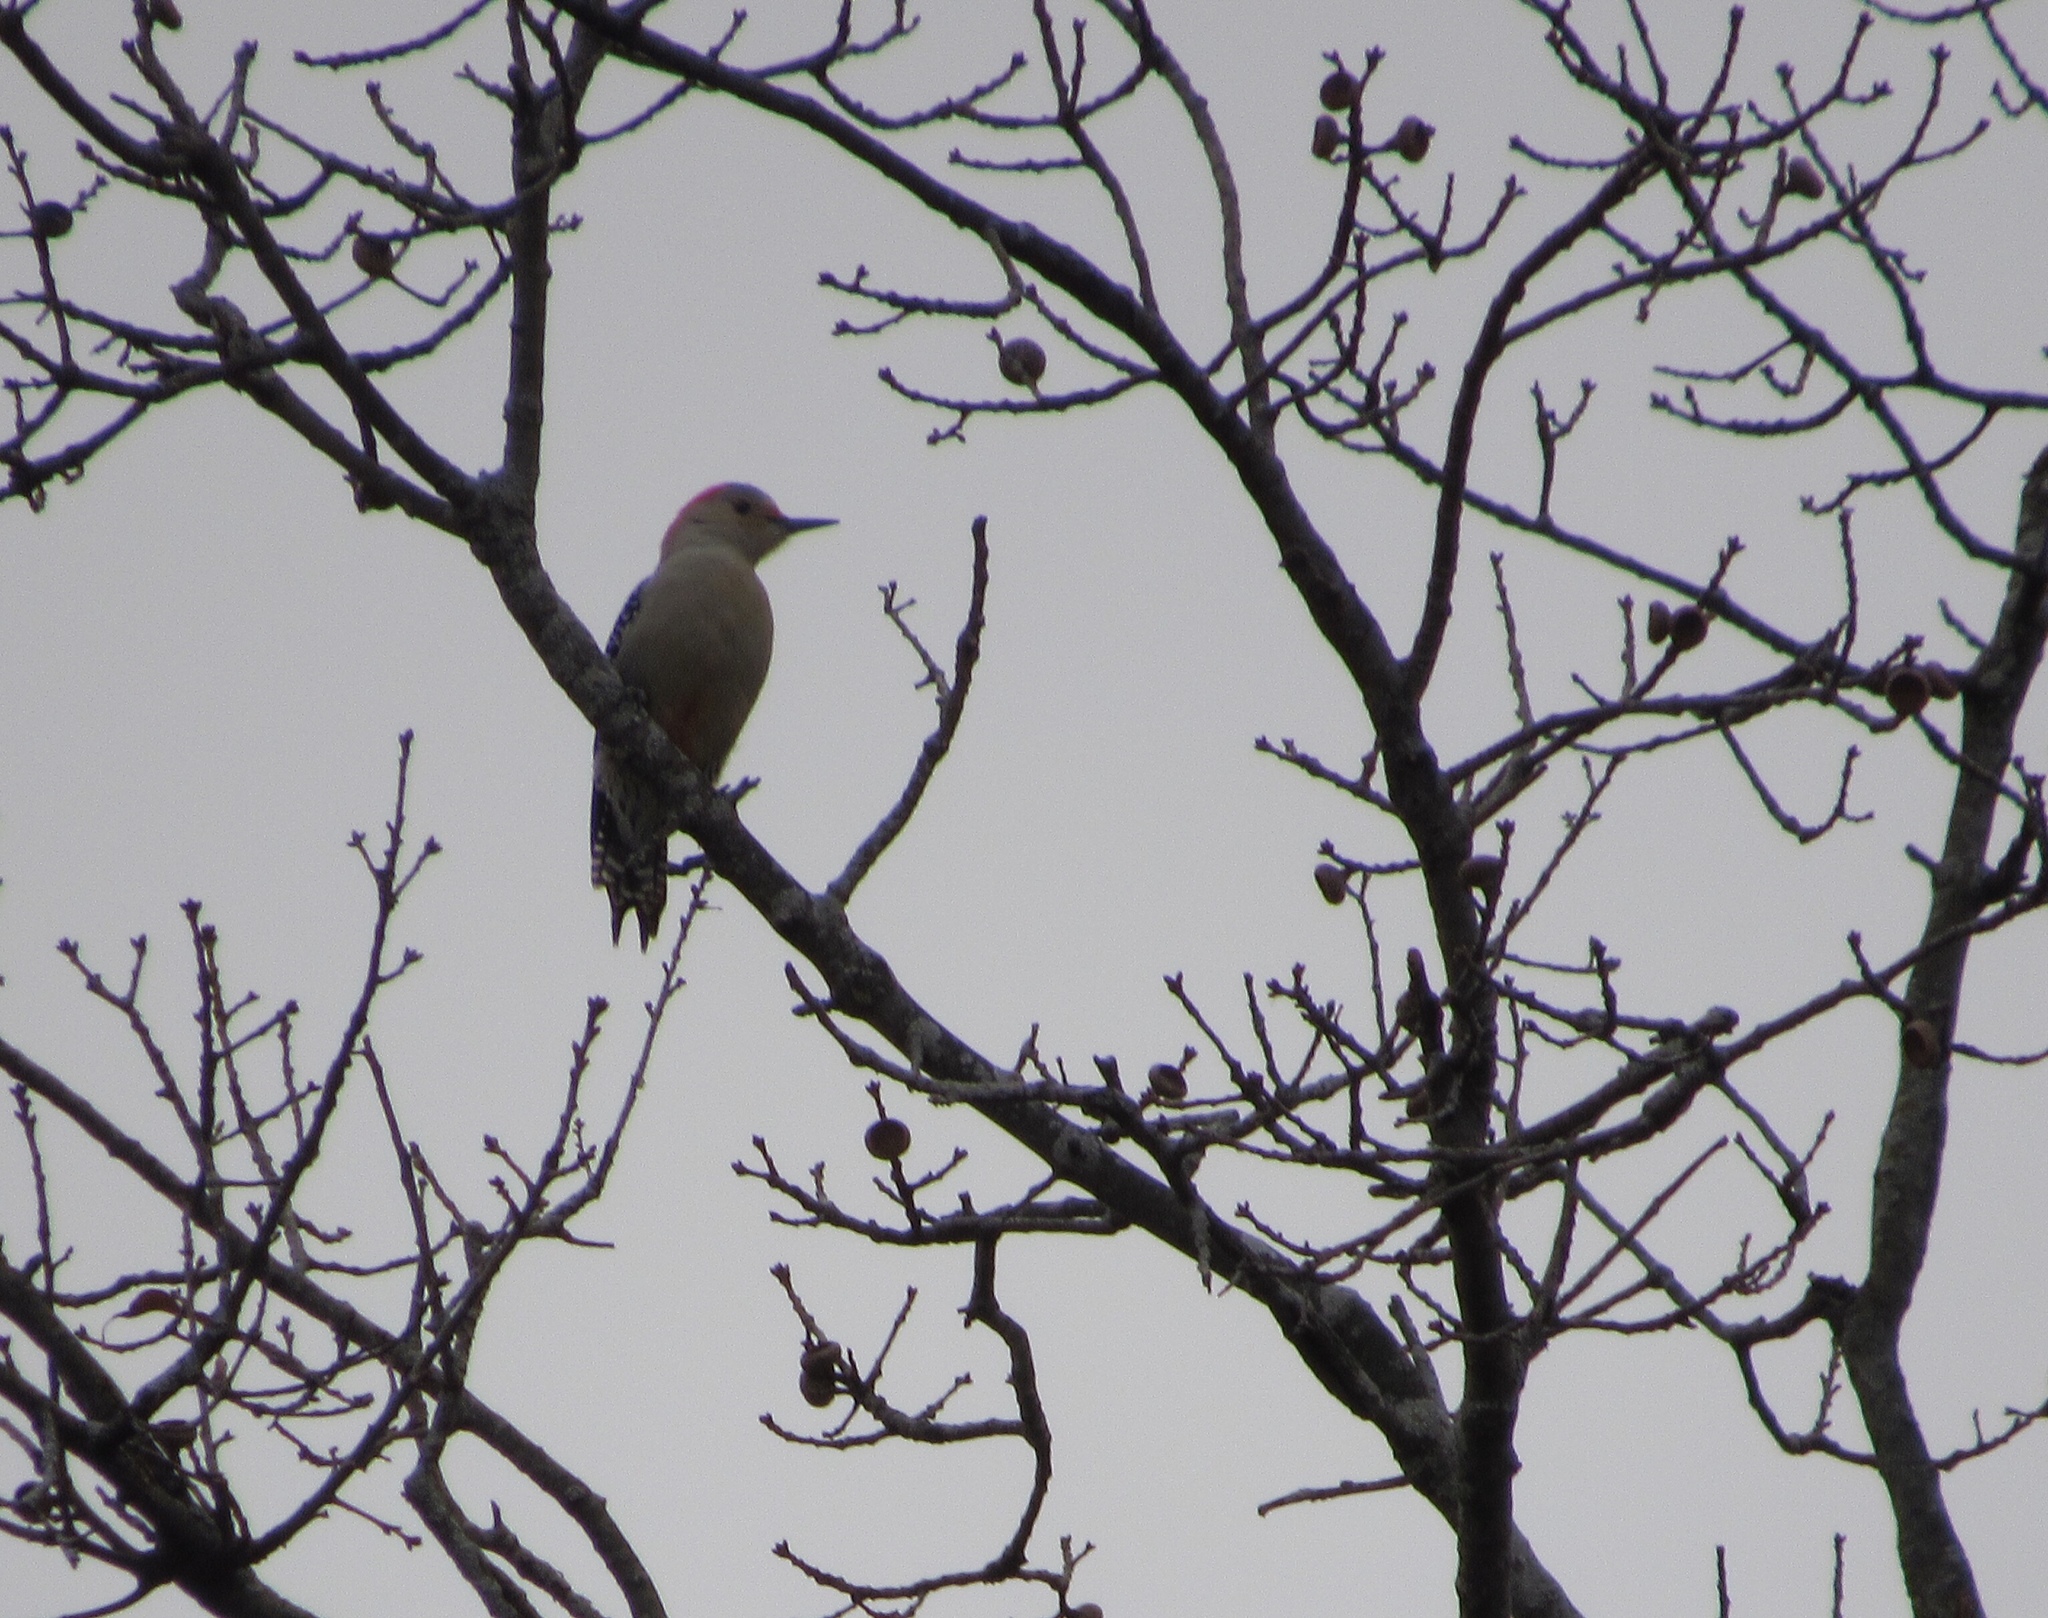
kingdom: Animalia
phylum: Chordata
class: Aves
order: Piciformes
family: Picidae
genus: Melanerpes
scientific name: Melanerpes carolinus
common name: Red-bellied woodpecker
